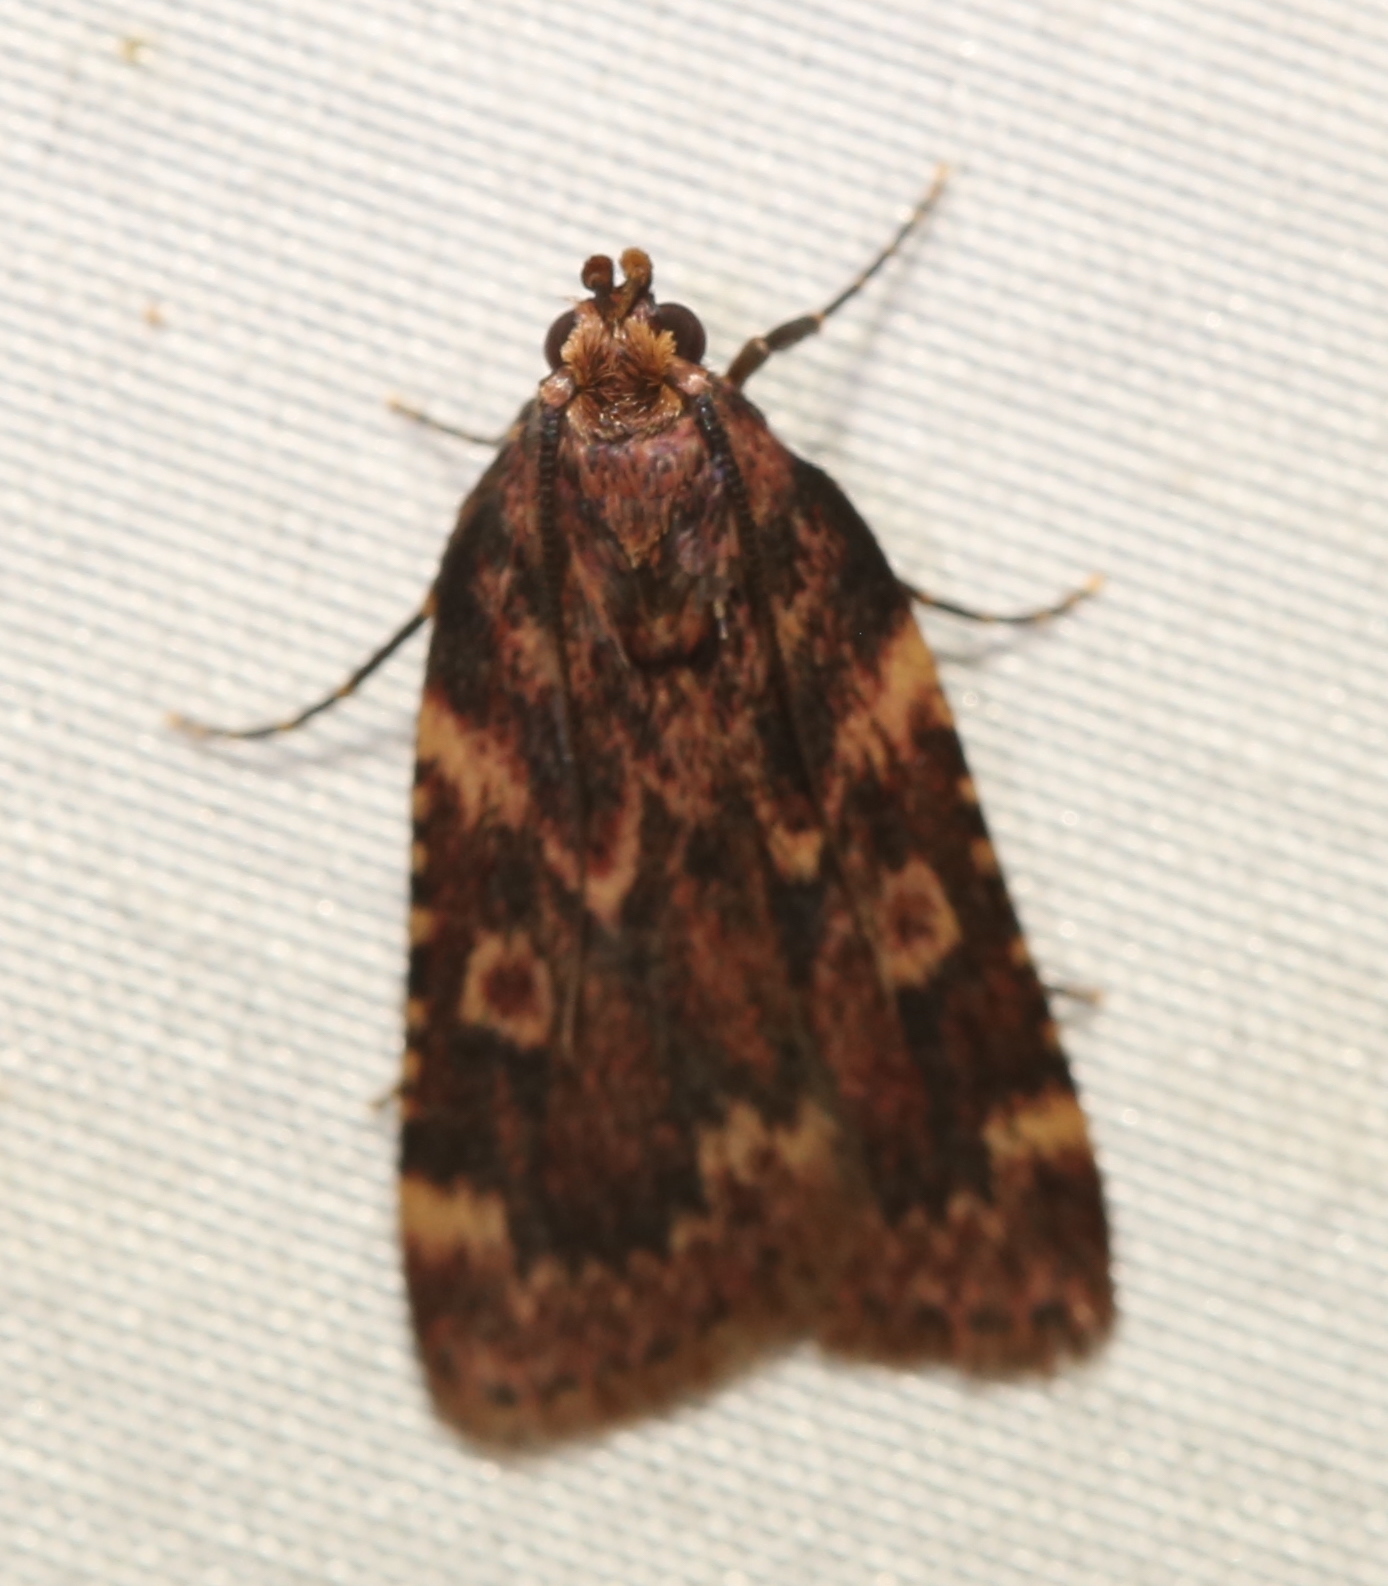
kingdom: Animalia
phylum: Arthropoda
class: Insecta
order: Lepidoptera
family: Pyralidae
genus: Aglossa
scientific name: Aglossa cuprina
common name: Grease moth
